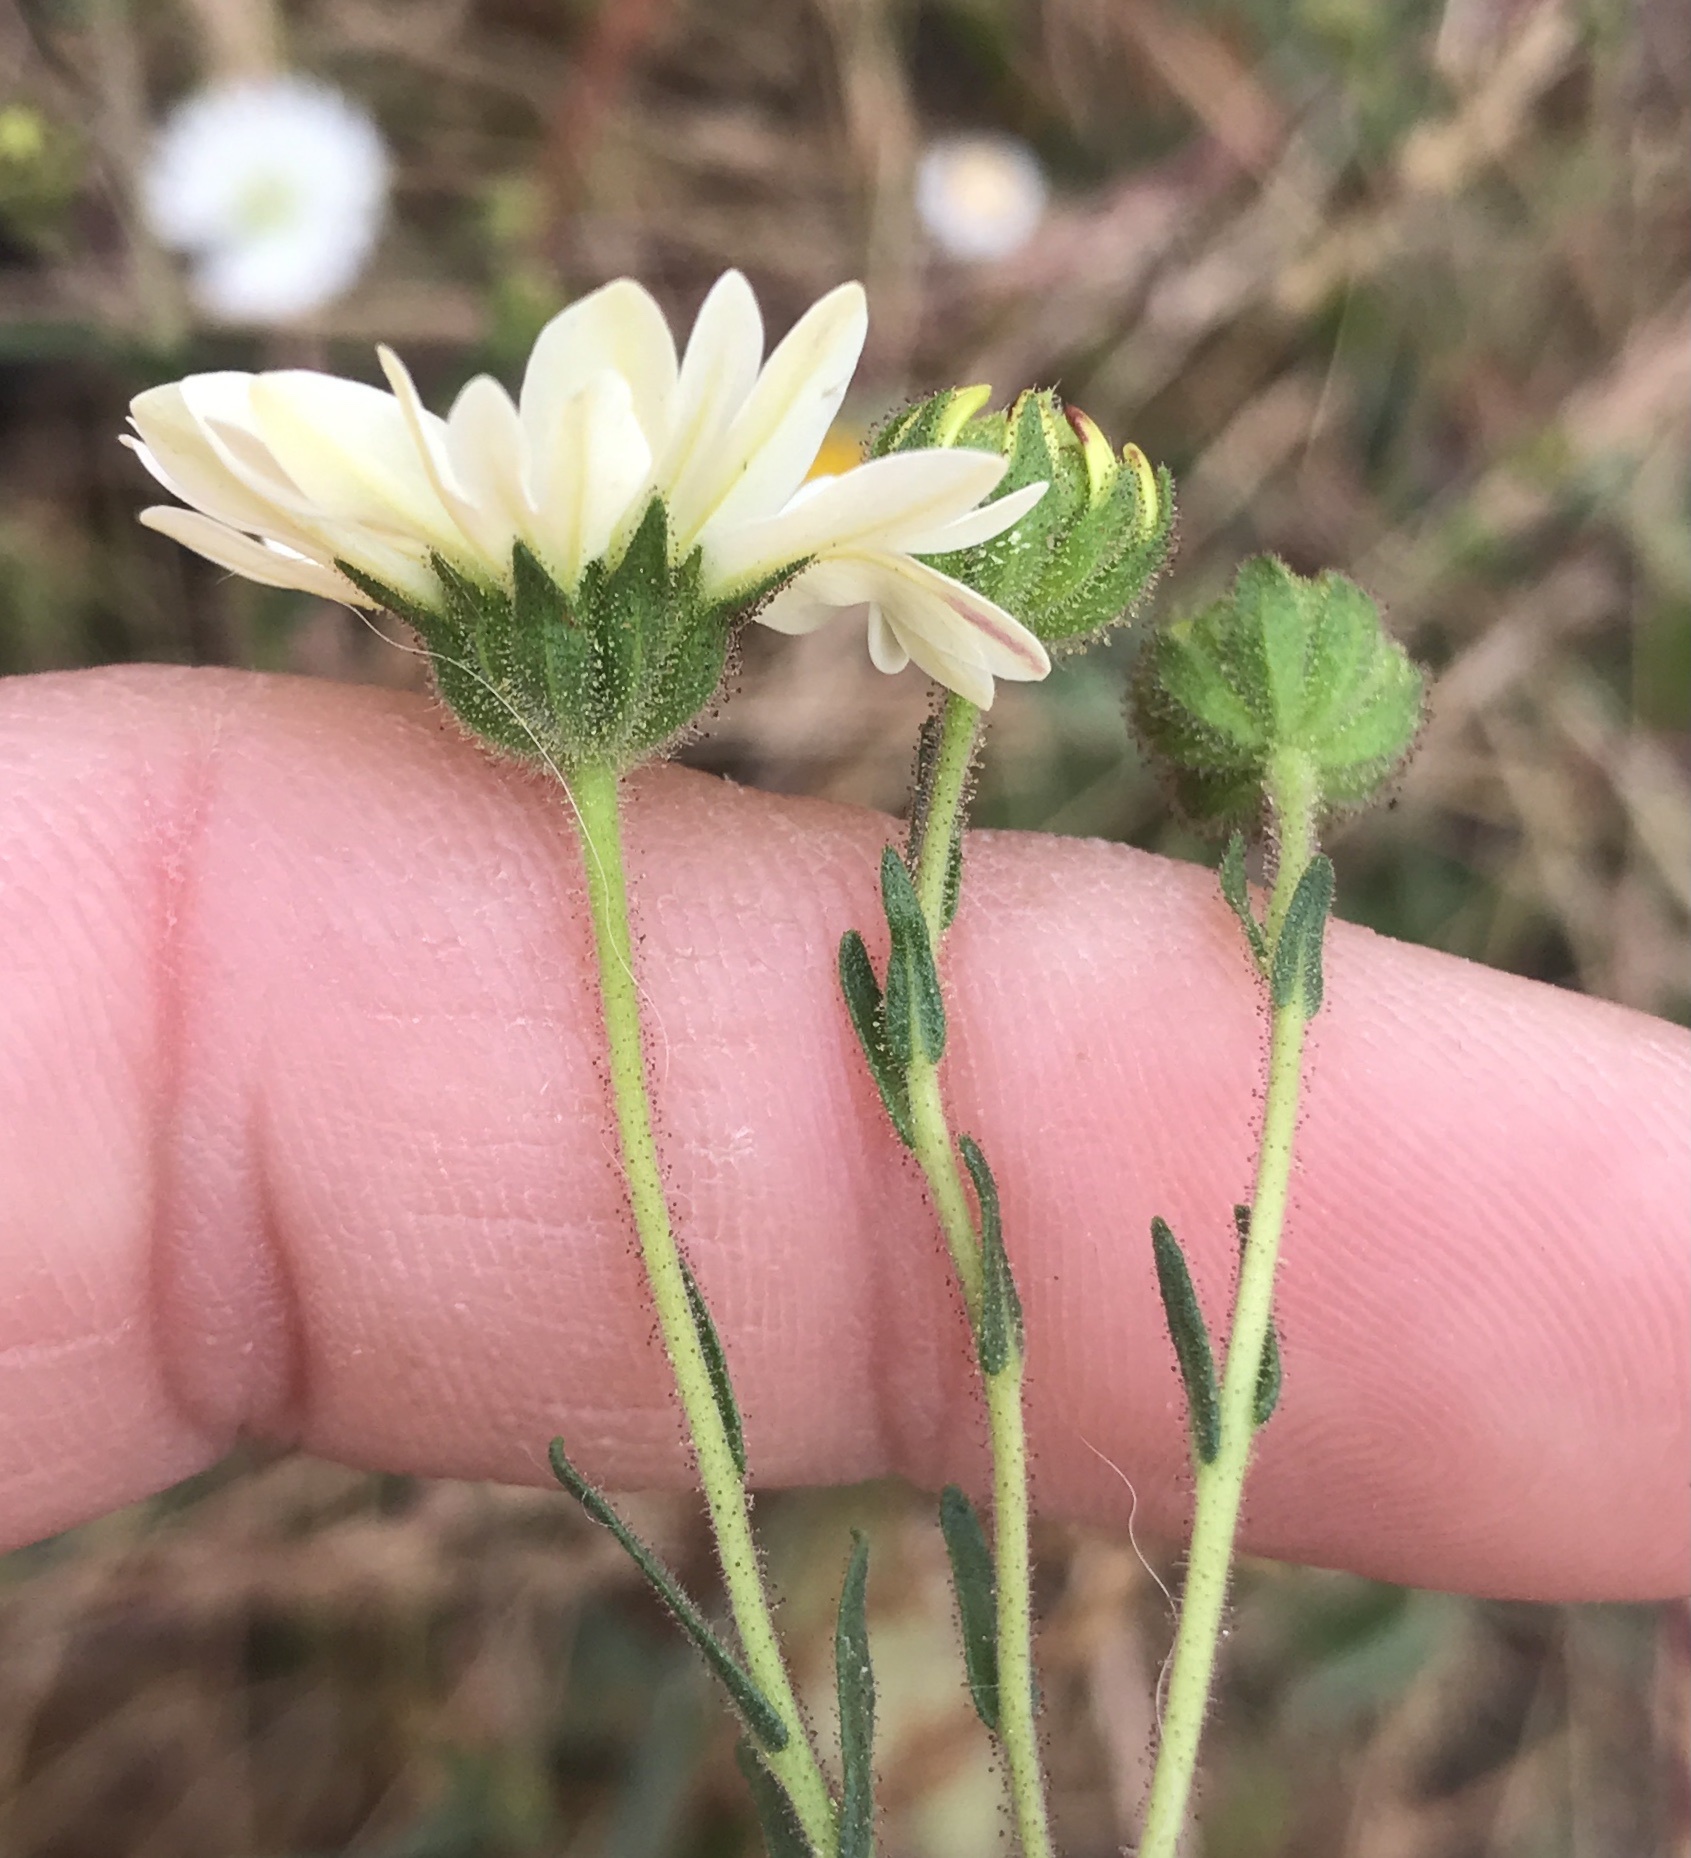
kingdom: Plantae
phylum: Tracheophyta
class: Magnoliopsida
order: Asterales
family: Asteraceae
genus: Hemizonia
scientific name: Hemizonia congesta
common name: Hayfield tarweed
